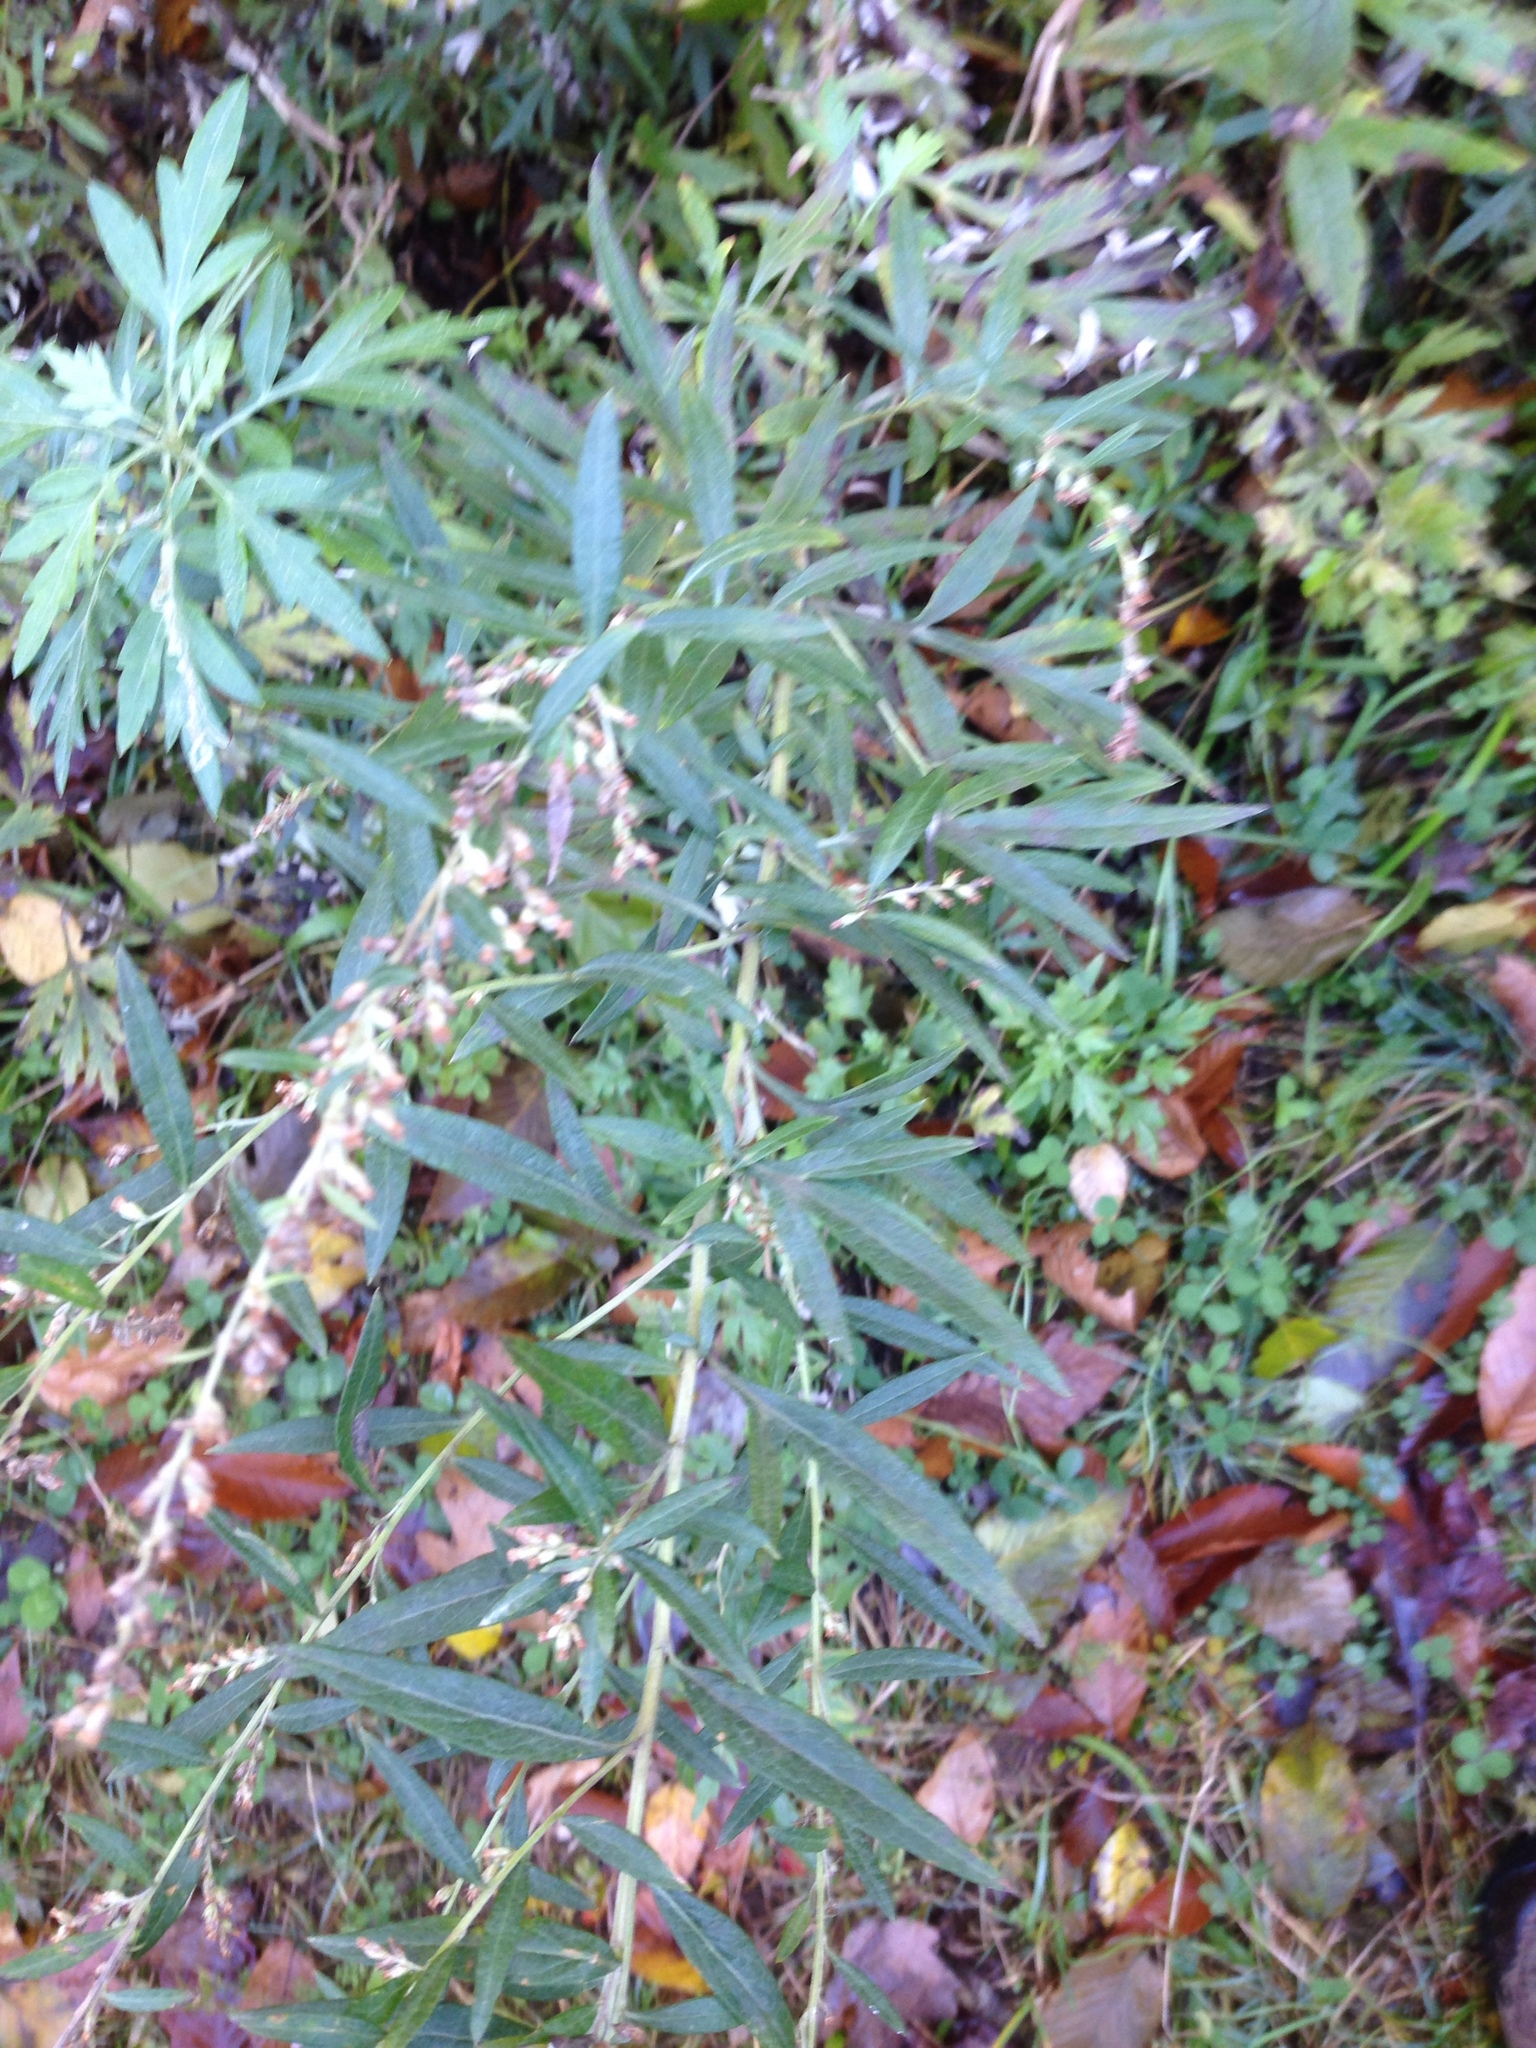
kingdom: Plantae
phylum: Tracheophyta
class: Magnoliopsida
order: Asterales
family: Asteraceae
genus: Artemisia
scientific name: Artemisia vulgaris
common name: Mugwort
